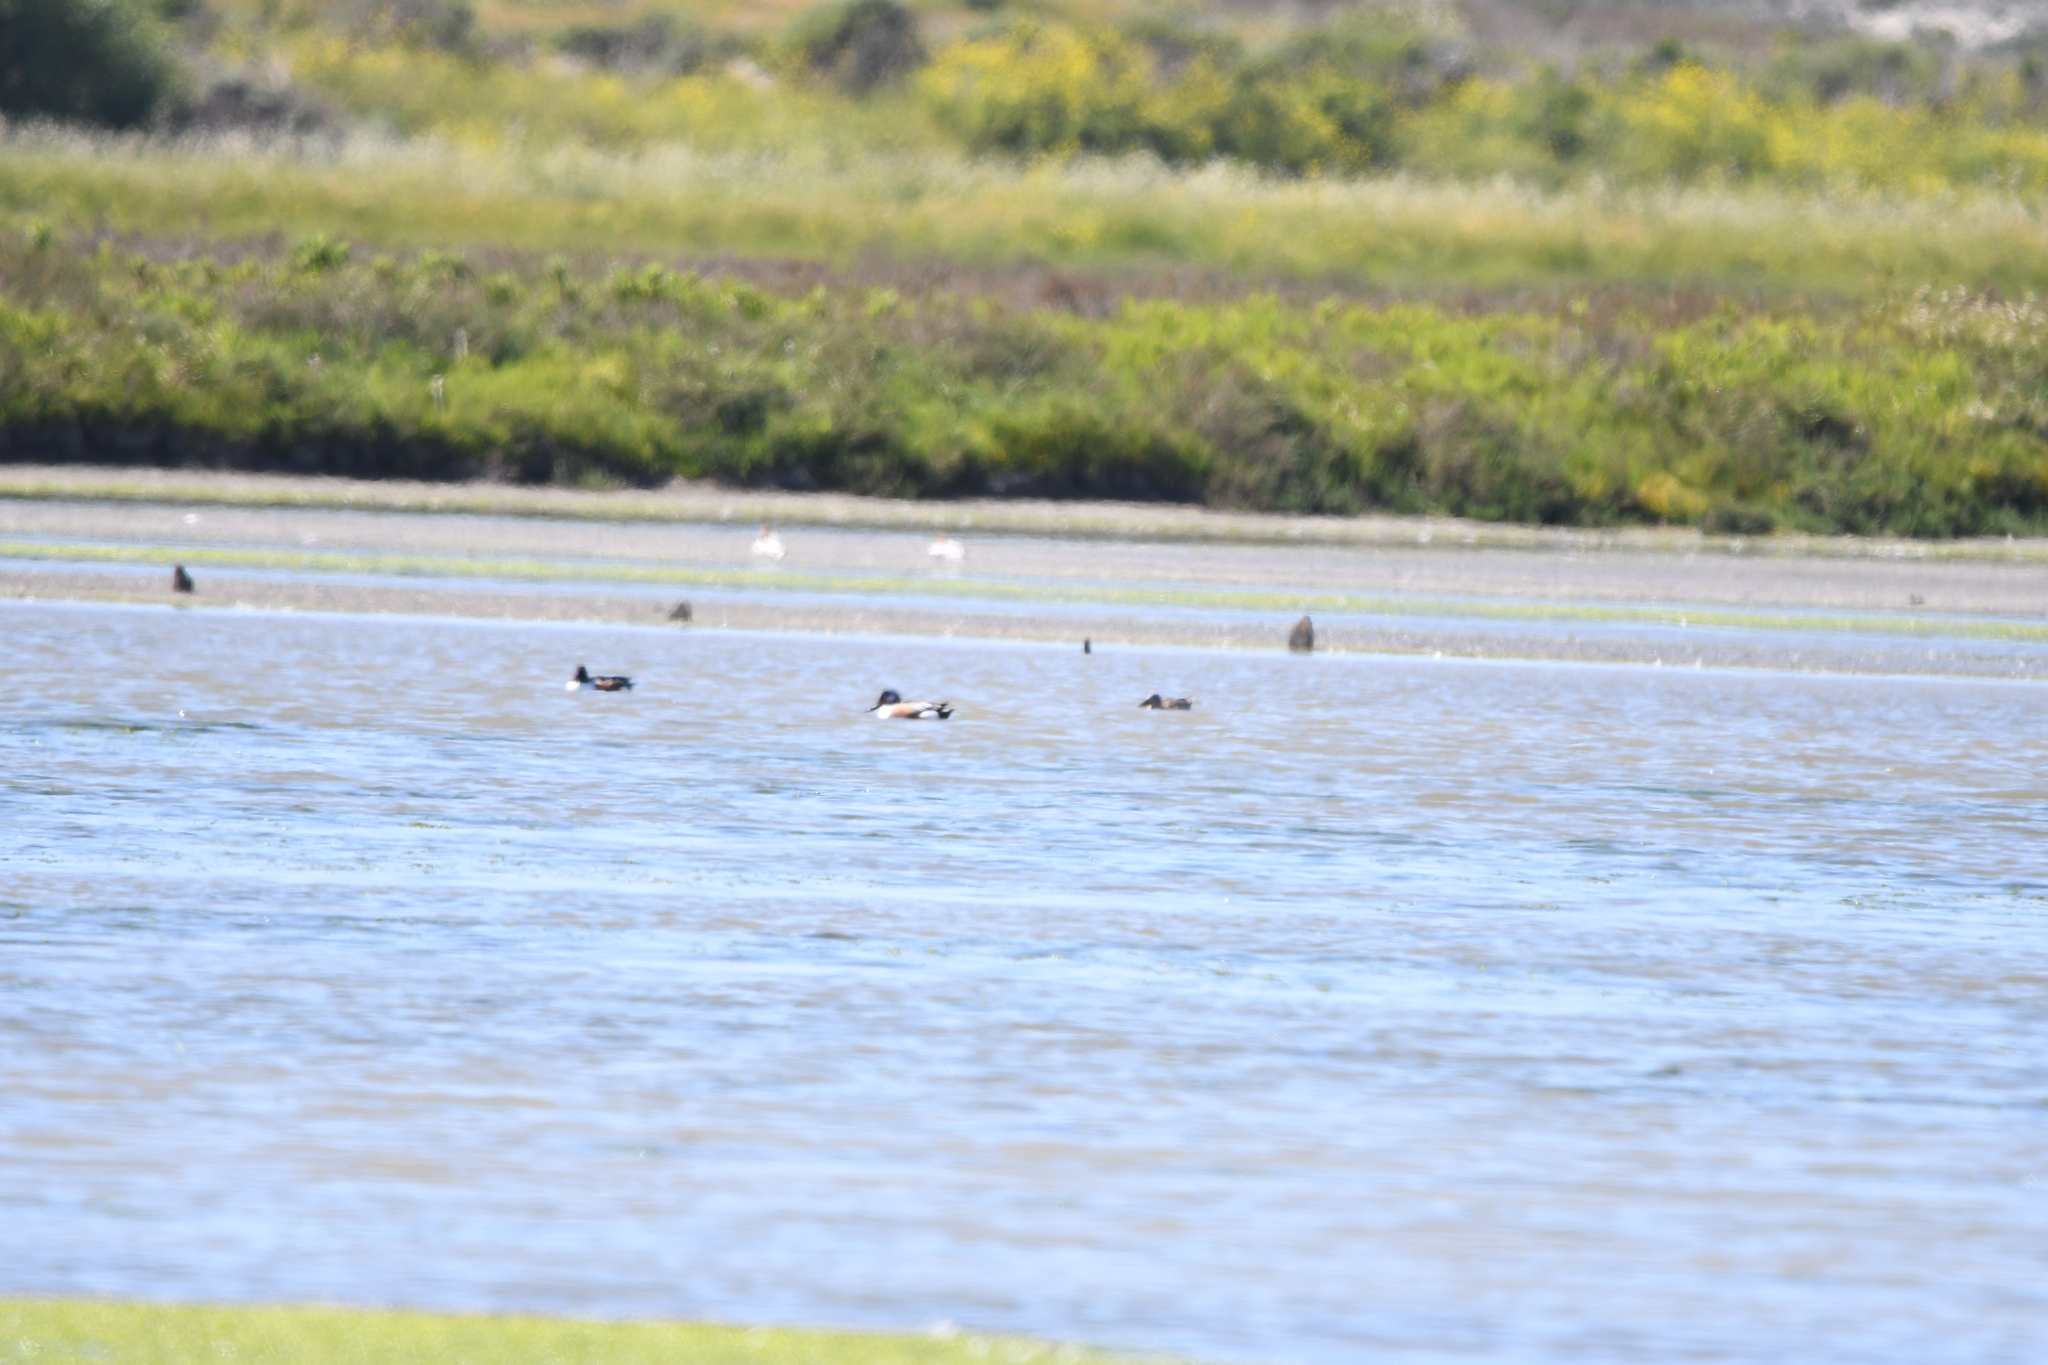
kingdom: Animalia
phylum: Chordata
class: Aves
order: Anseriformes
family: Anatidae
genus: Spatula
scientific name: Spatula clypeata
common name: Northern shoveler
